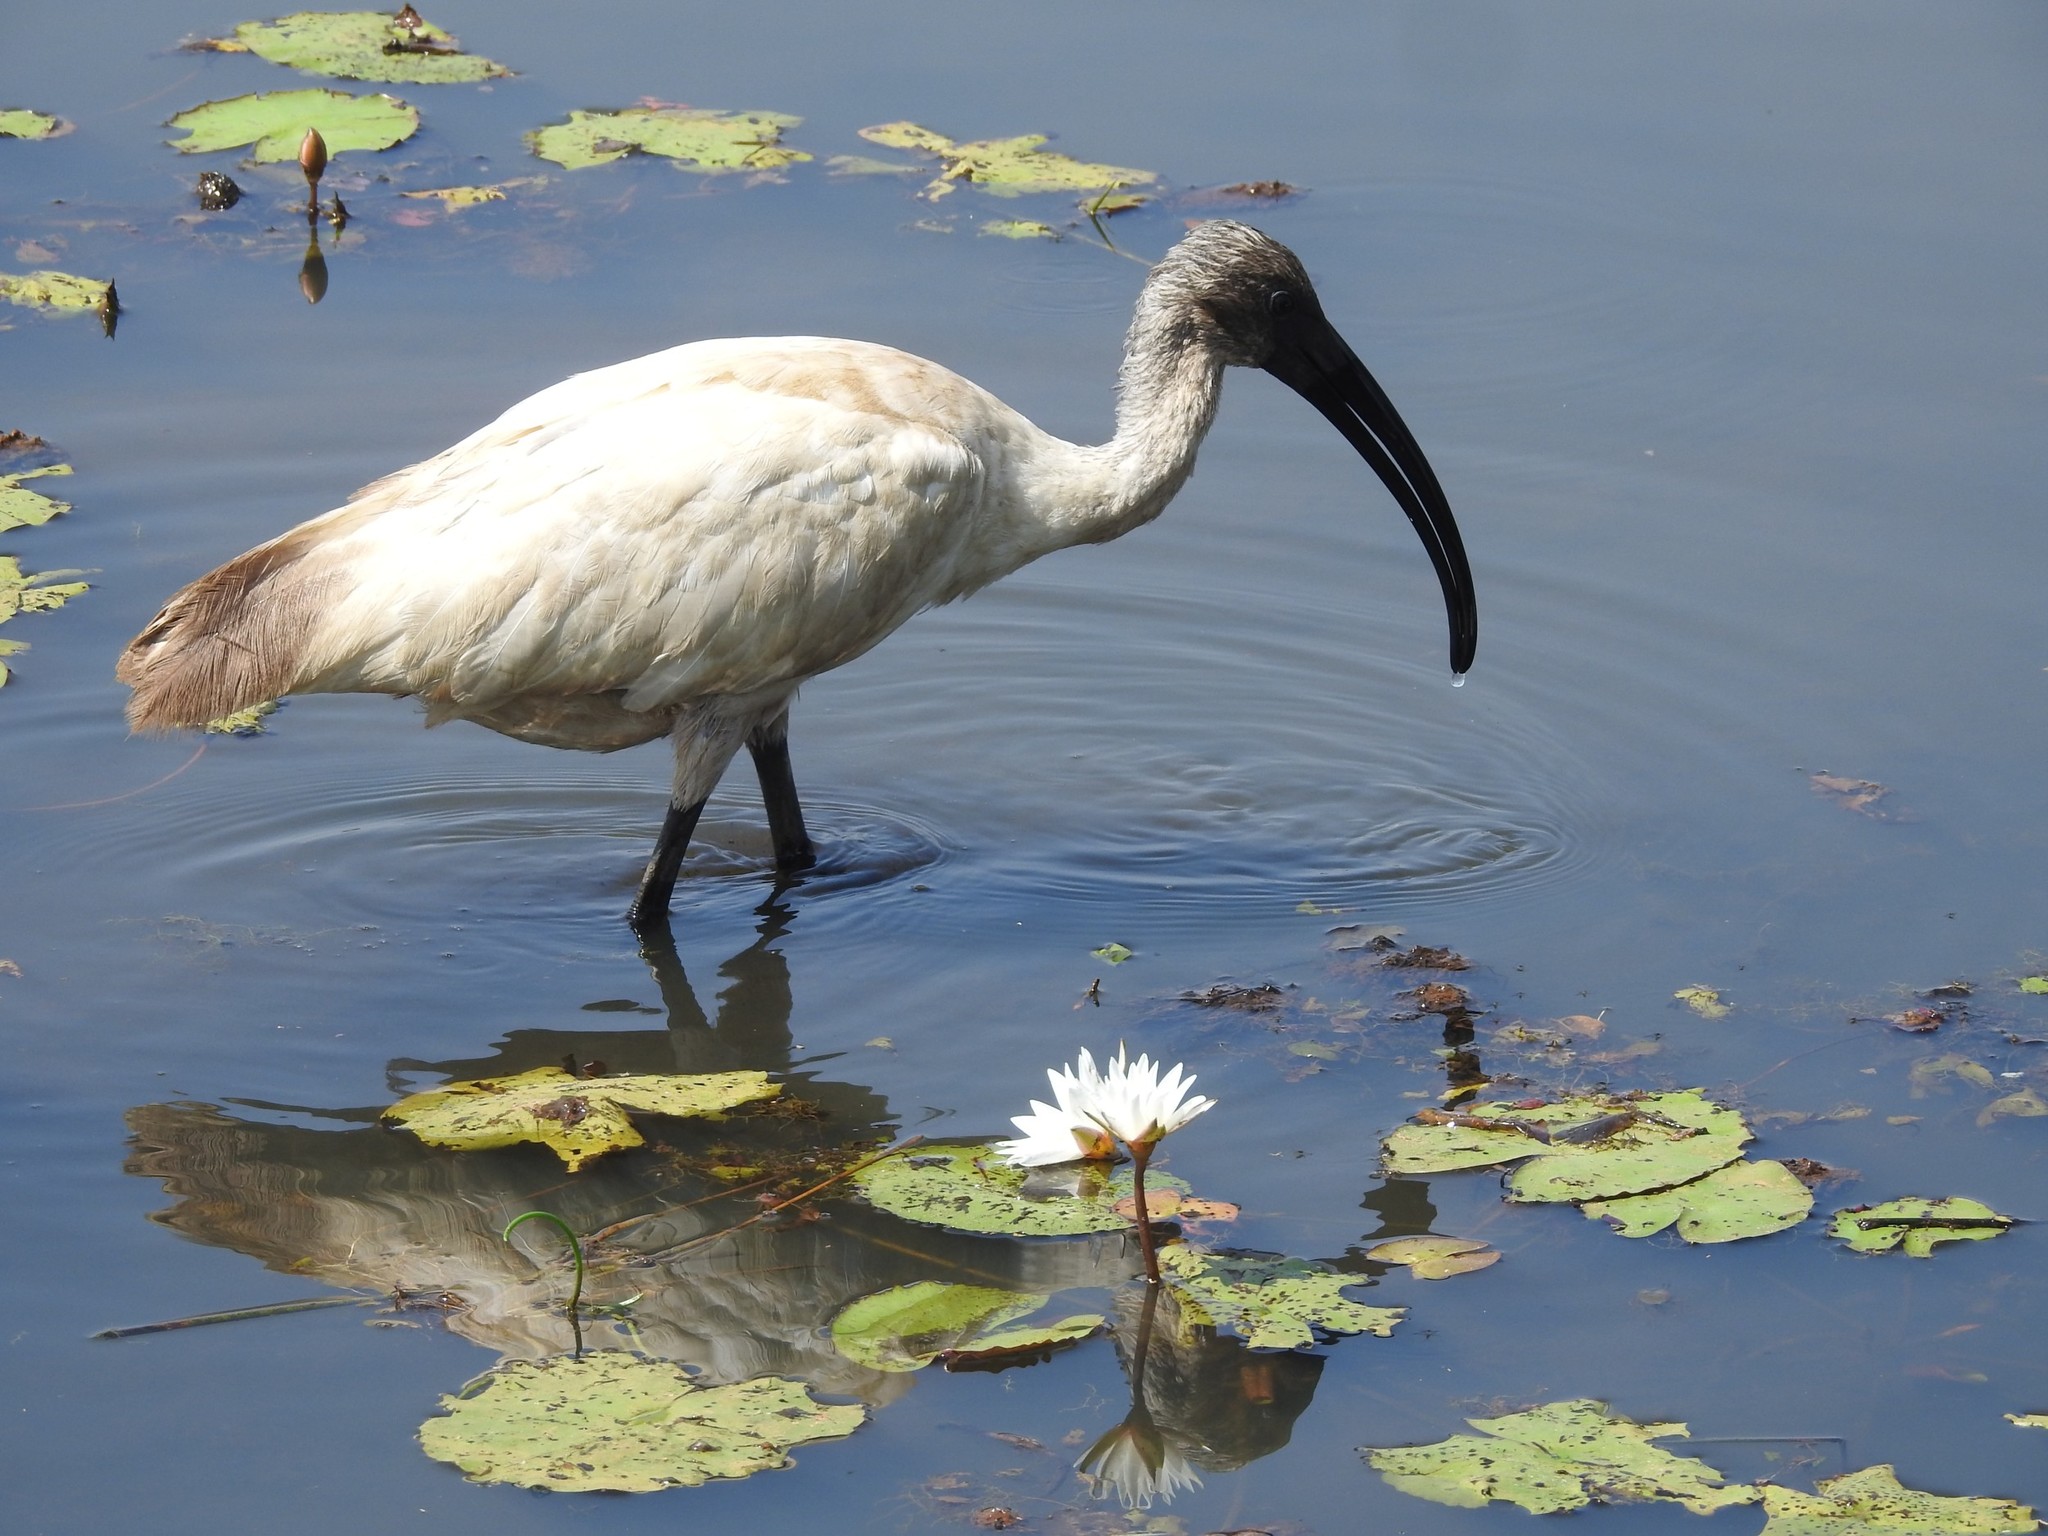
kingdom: Animalia
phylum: Chordata
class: Aves
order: Pelecaniformes
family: Threskiornithidae
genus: Threskiornis
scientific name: Threskiornis melanocephalus
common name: Black-headed ibis
